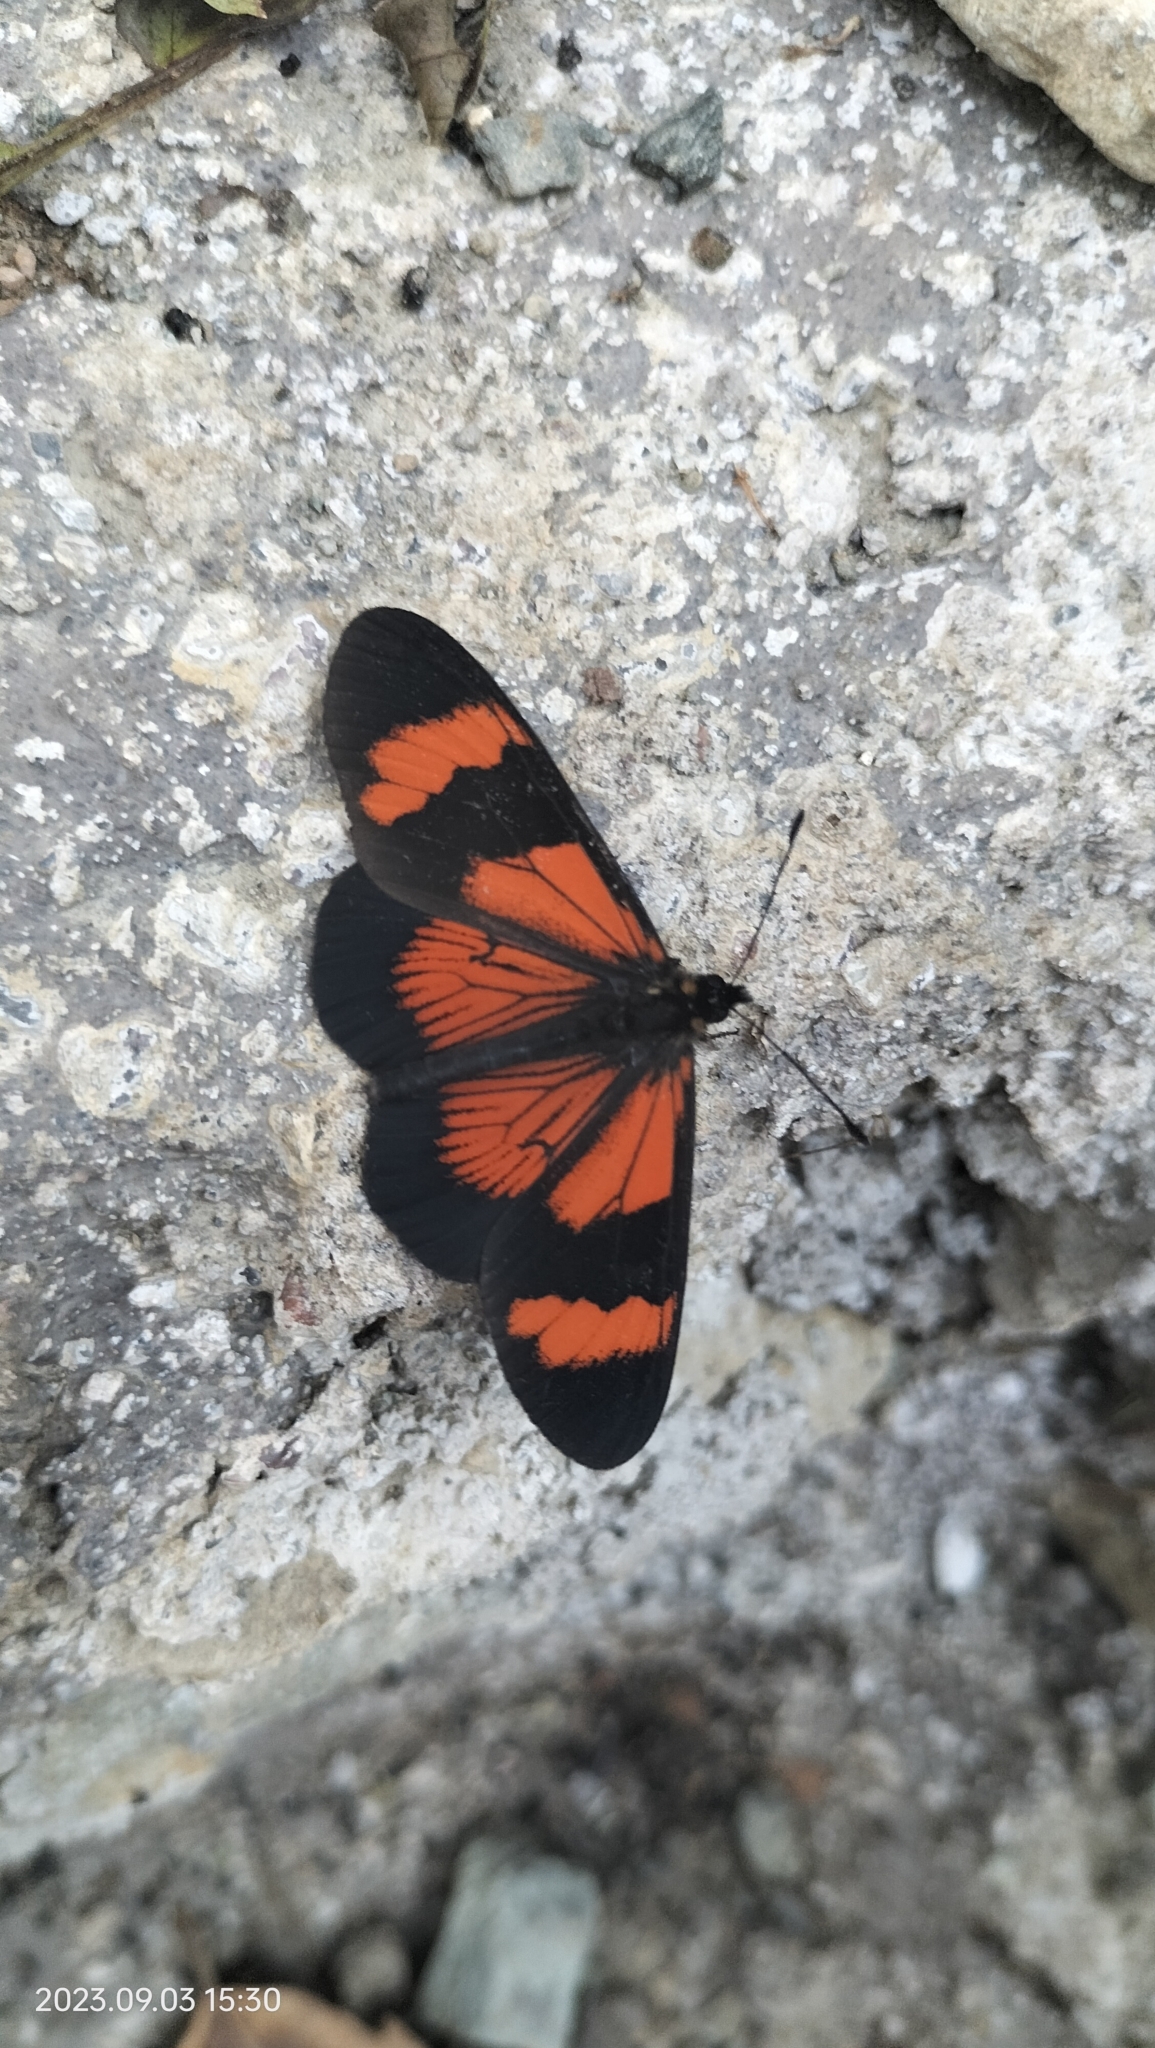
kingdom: Animalia
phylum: Arthropoda
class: Insecta
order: Lepidoptera
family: Nymphalidae
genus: Actinote
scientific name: Actinote negra
